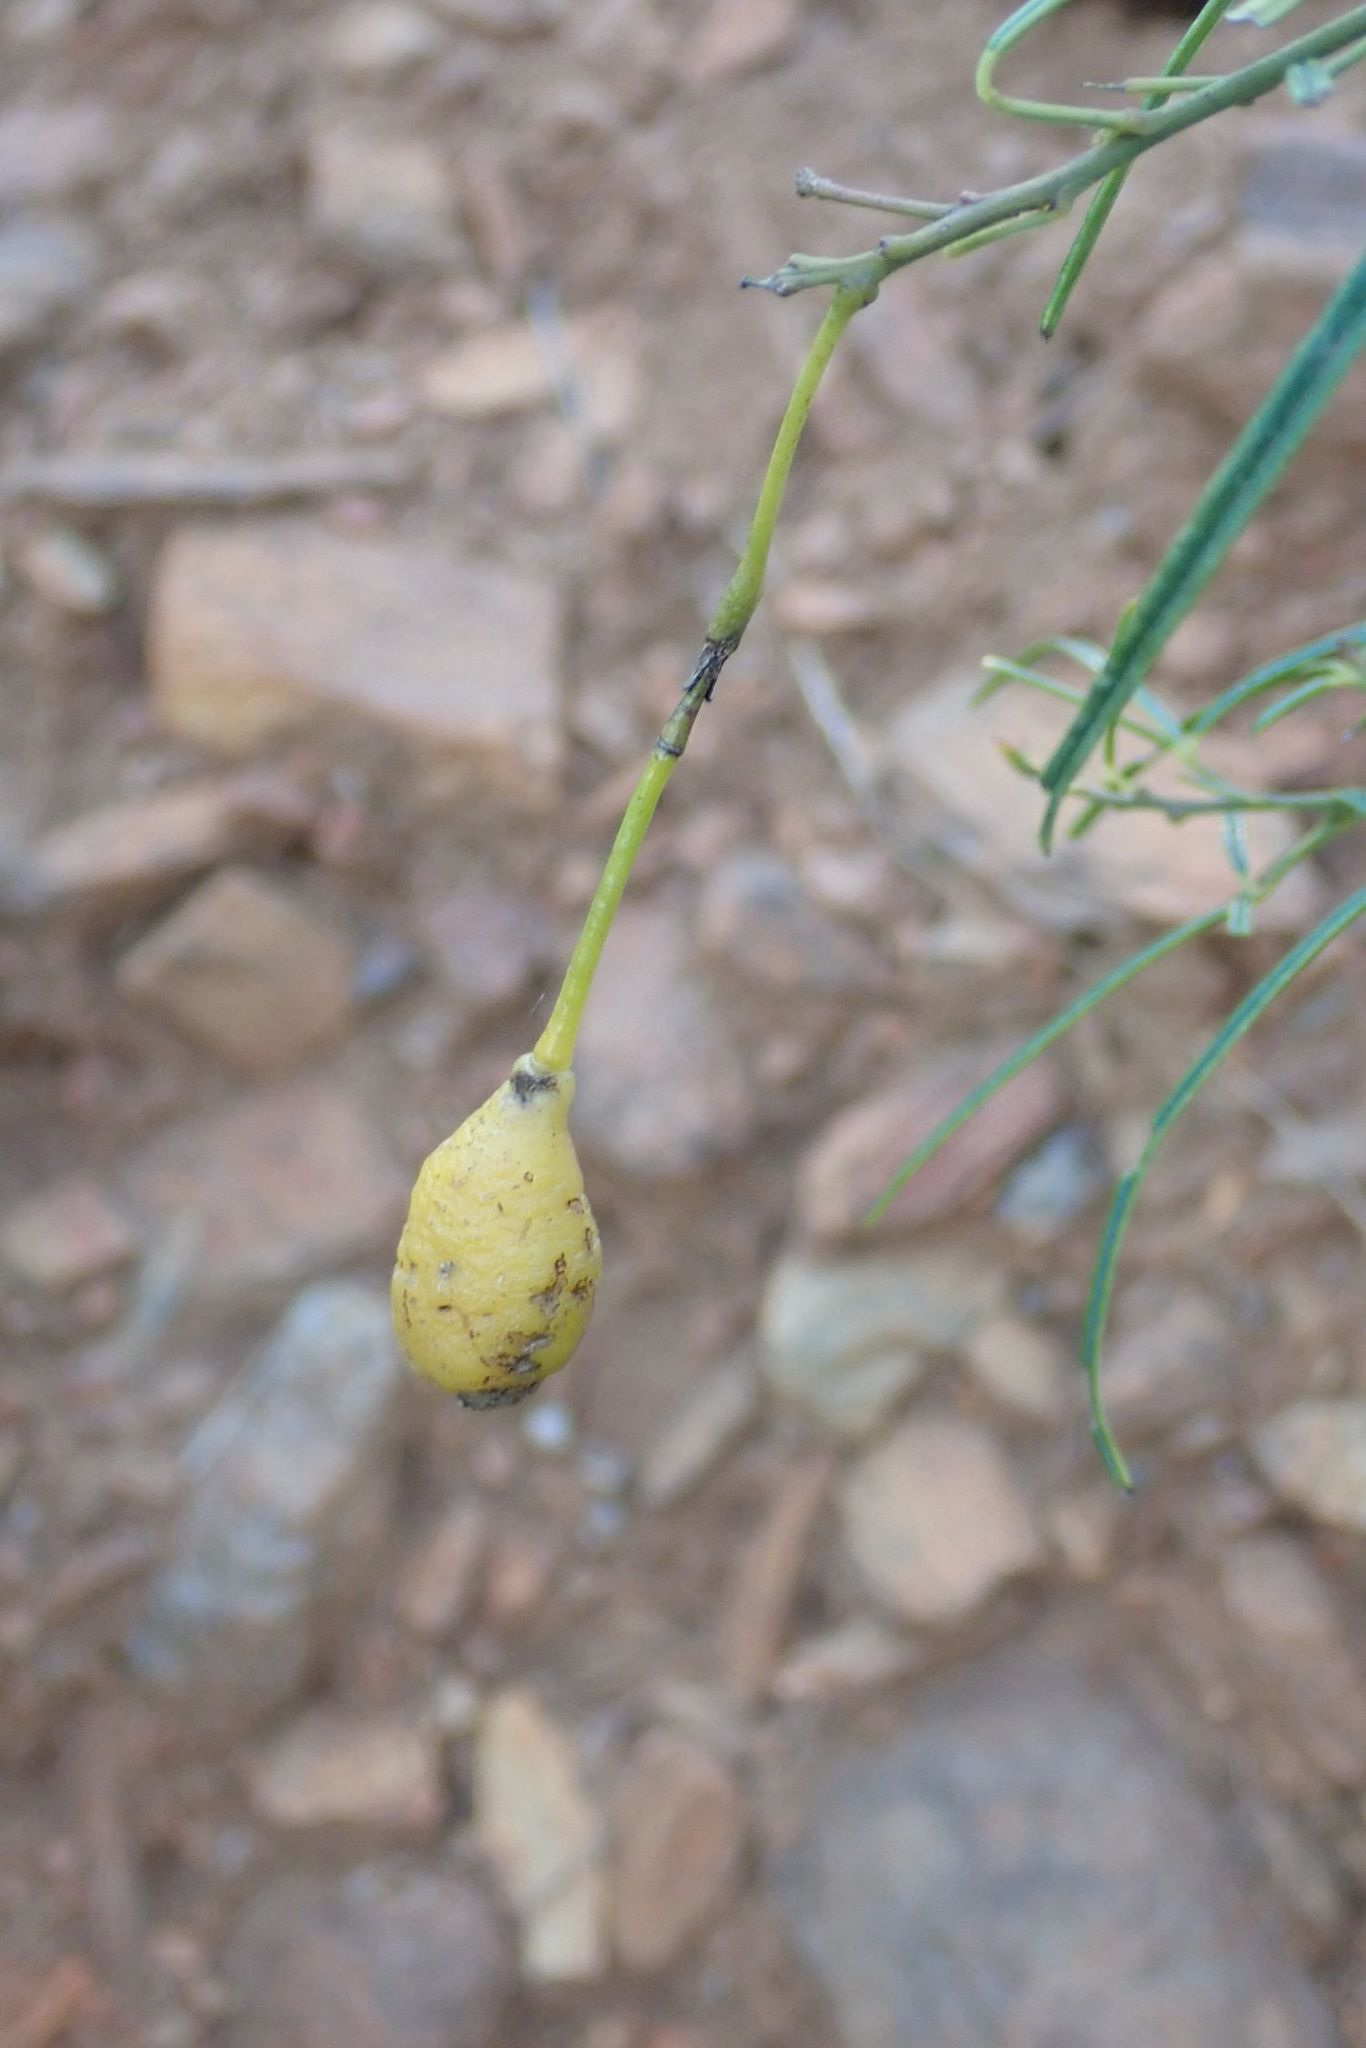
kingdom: Plantae
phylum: Tracheophyta
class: Magnoliopsida
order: Brassicales
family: Capparaceae
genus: Maerua
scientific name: Maerua rosmarinoides
